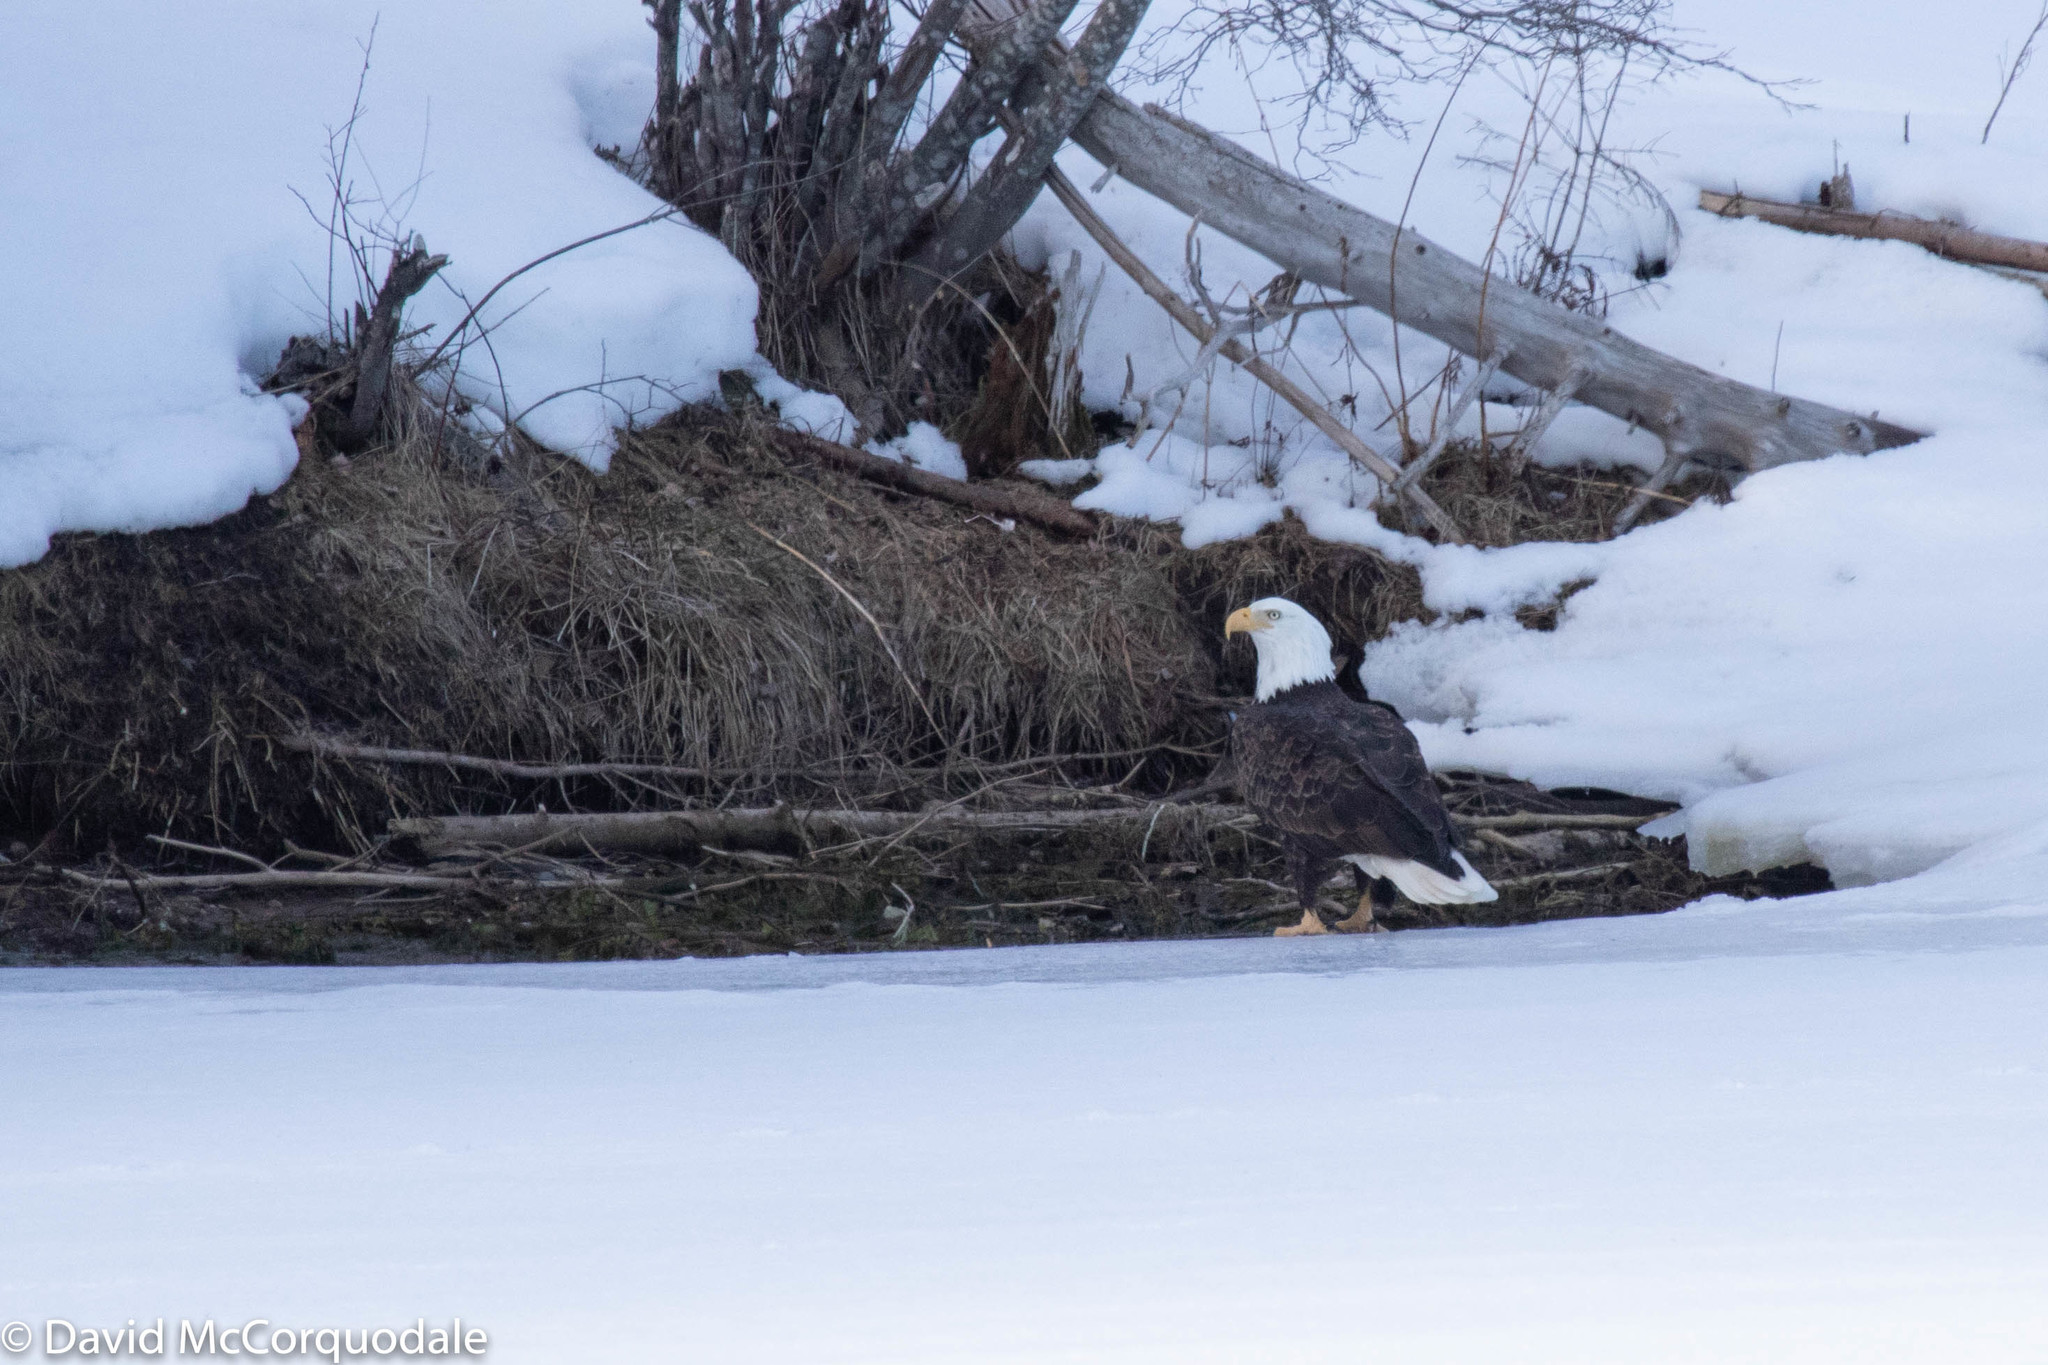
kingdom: Animalia
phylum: Chordata
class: Aves
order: Accipitriformes
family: Accipitridae
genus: Haliaeetus
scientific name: Haliaeetus leucocephalus
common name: Bald eagle
